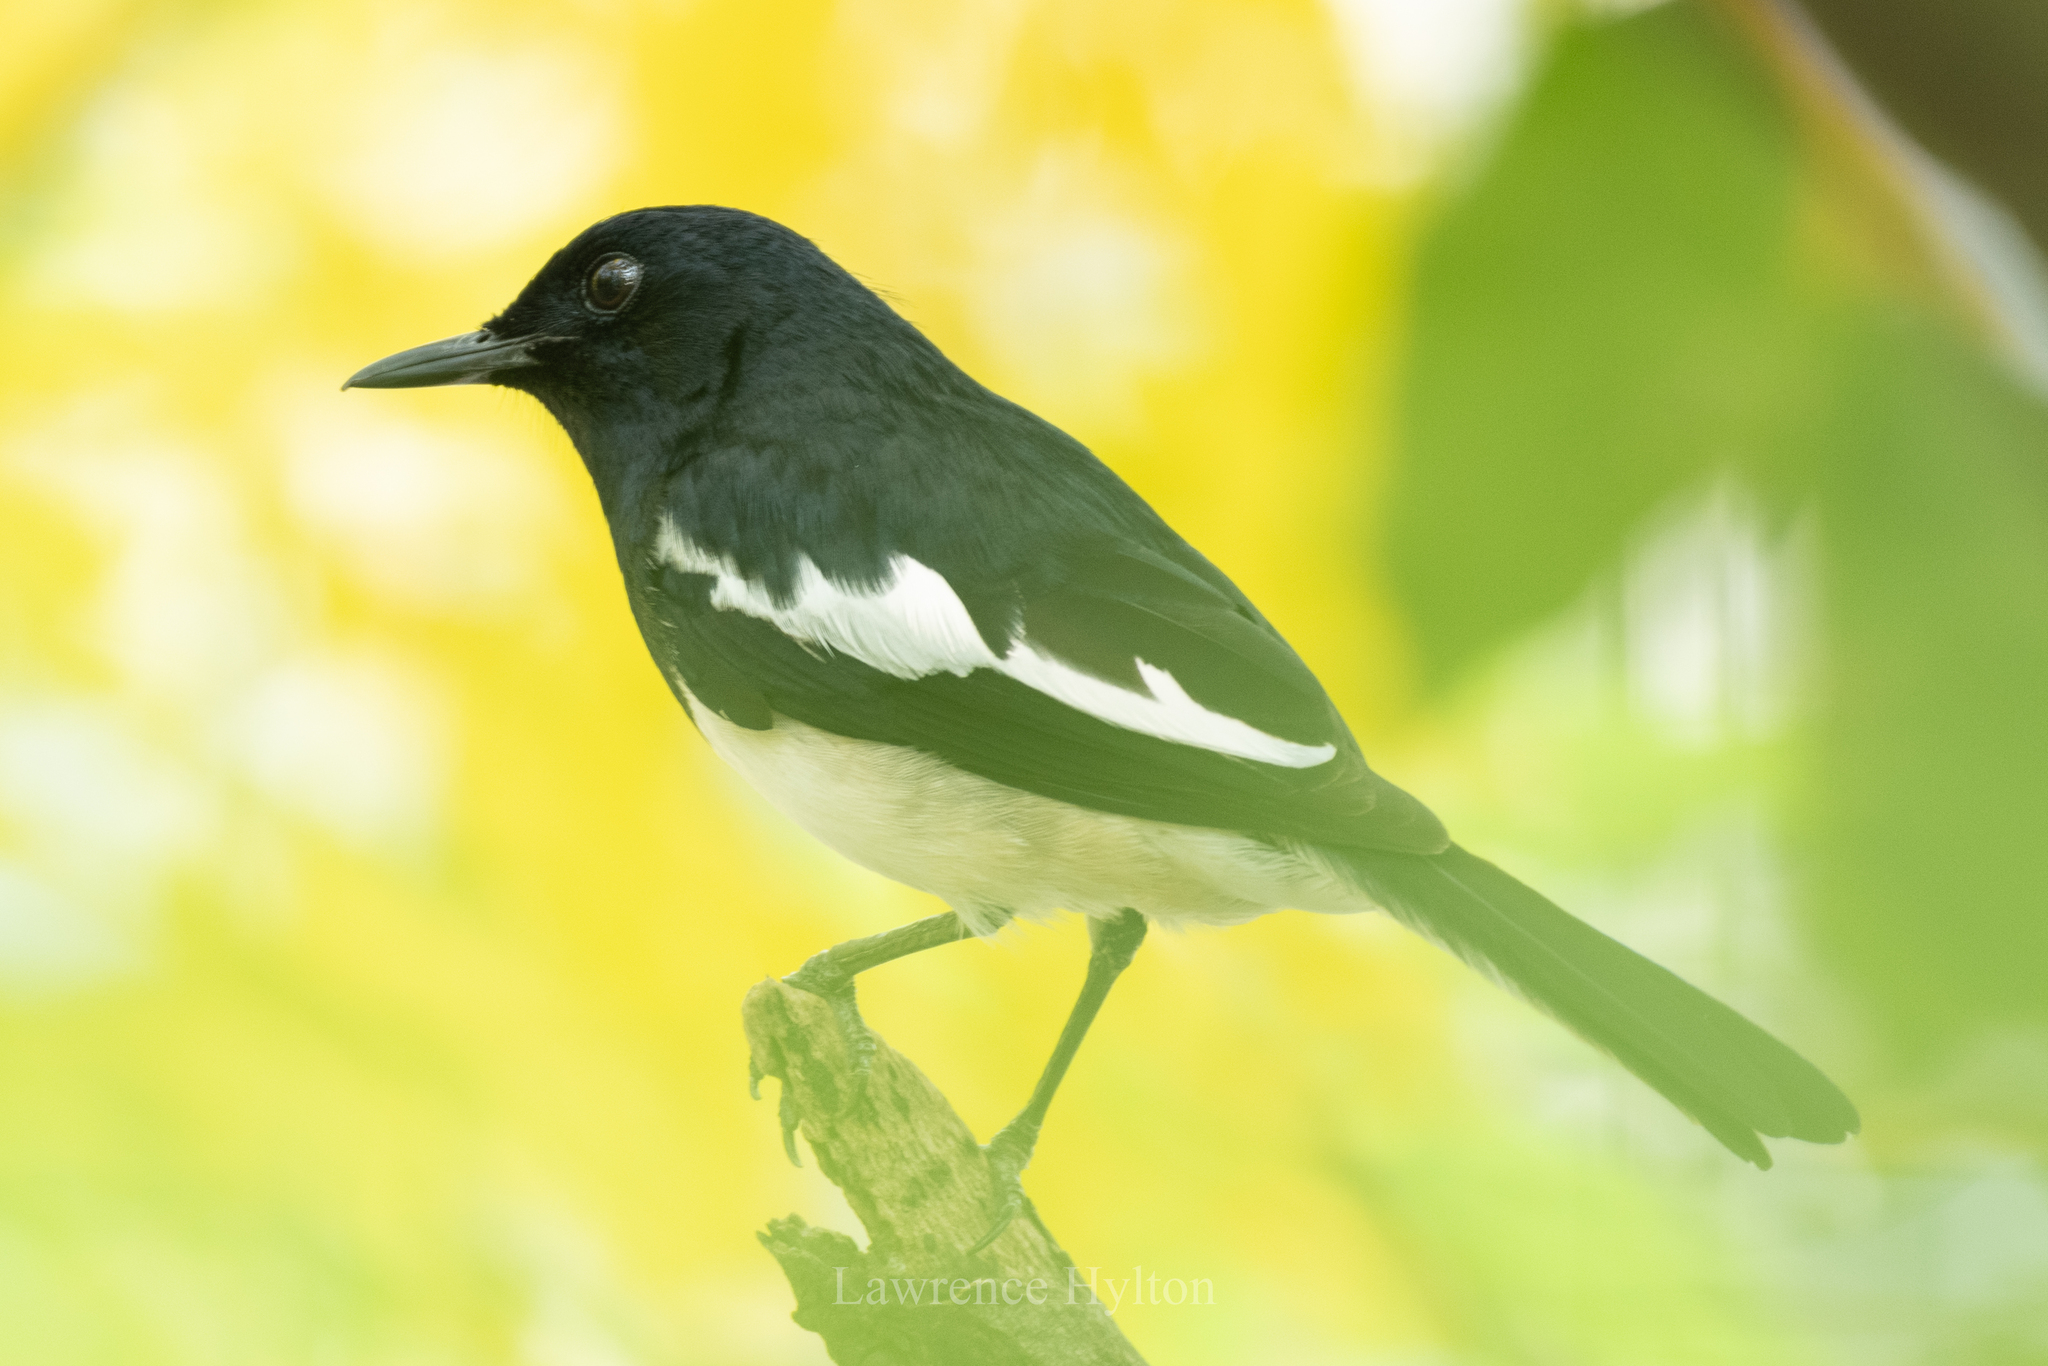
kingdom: Animalia
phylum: Chordata
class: Aves
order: Passeriformes
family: Muscicapidae
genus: Copsychus
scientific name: Copsychus saularis
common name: Oriental magpie-robin
